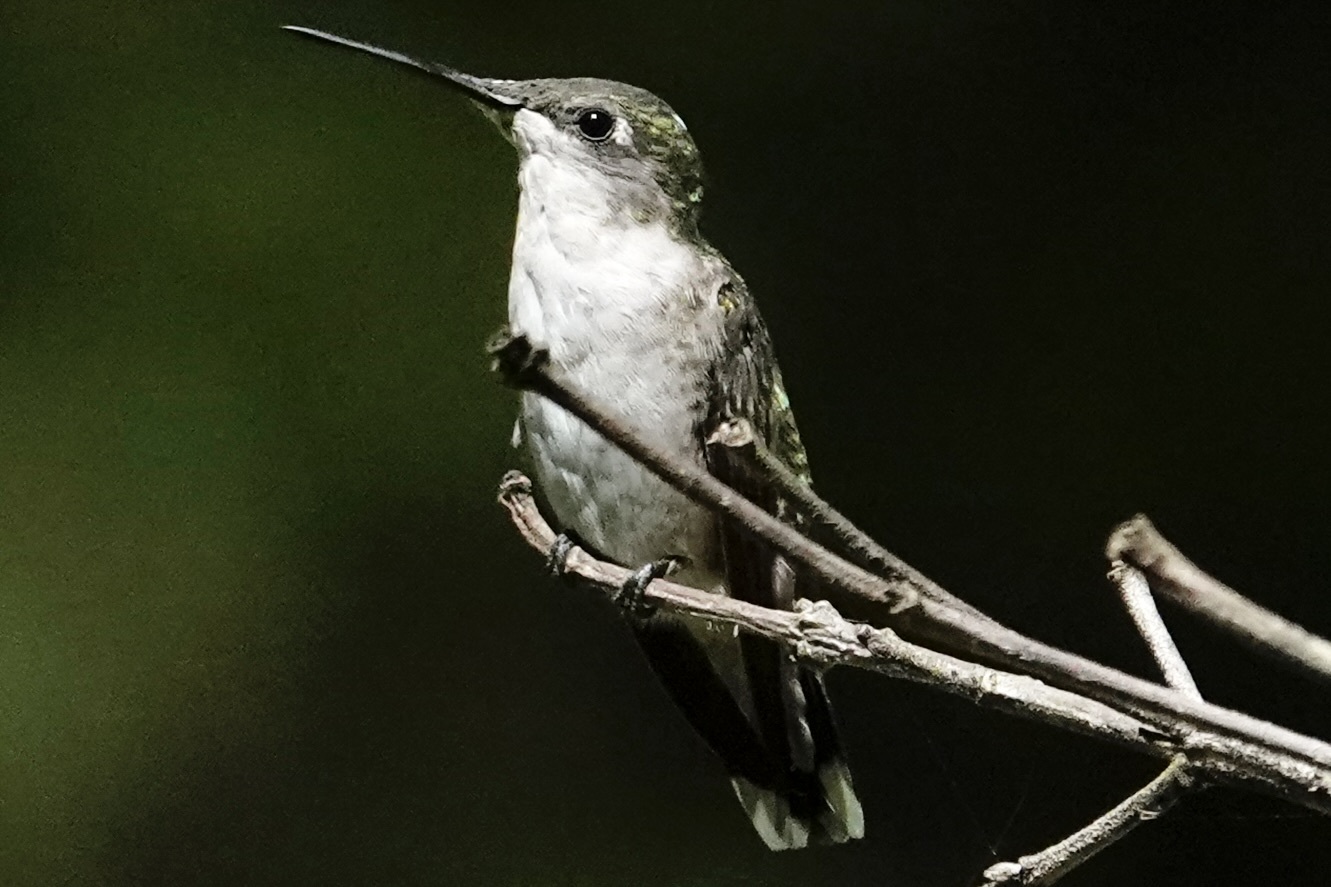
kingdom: Animalia
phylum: Chordata
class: Aves
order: Apodiformes
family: Trochilidae
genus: Archilochus
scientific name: Archilochus colubris
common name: Ruby-throated hummingbird
